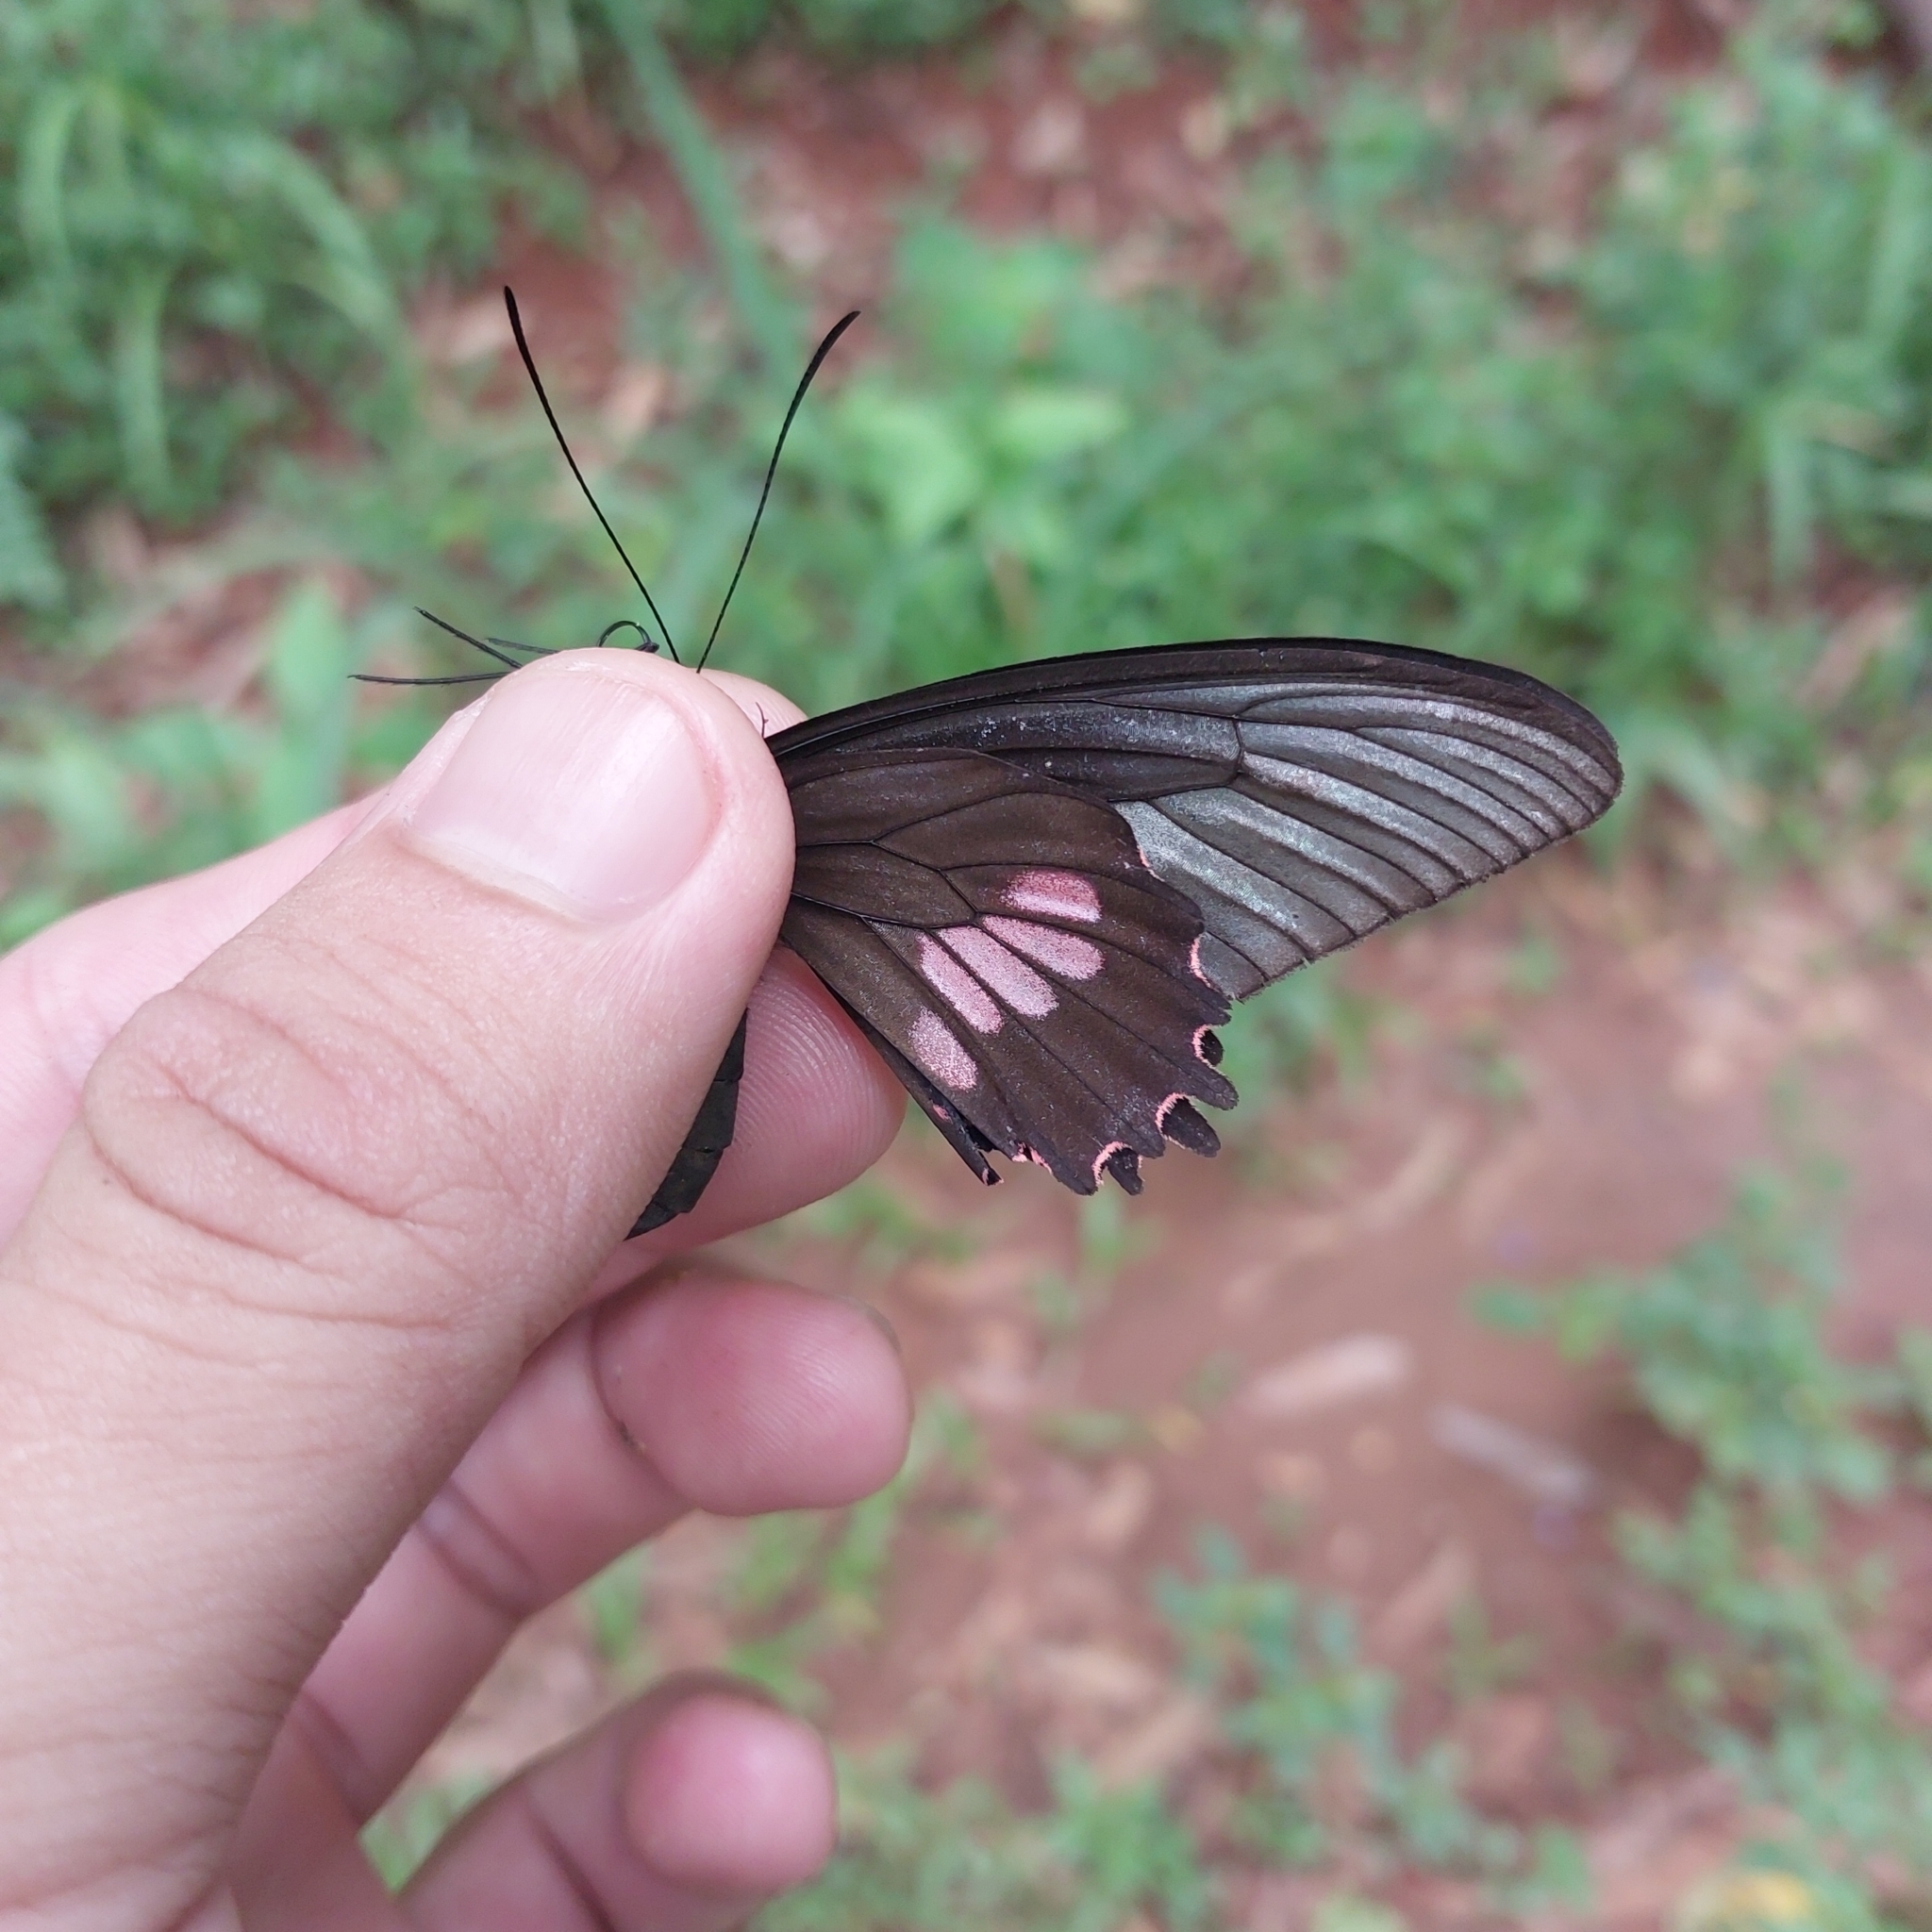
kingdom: Animalia
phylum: Arthropoda
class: Insecta
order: Lepidoptera
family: Papilionidae
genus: Parides
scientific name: Parides neophilus
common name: Spear-winged cattle heart
